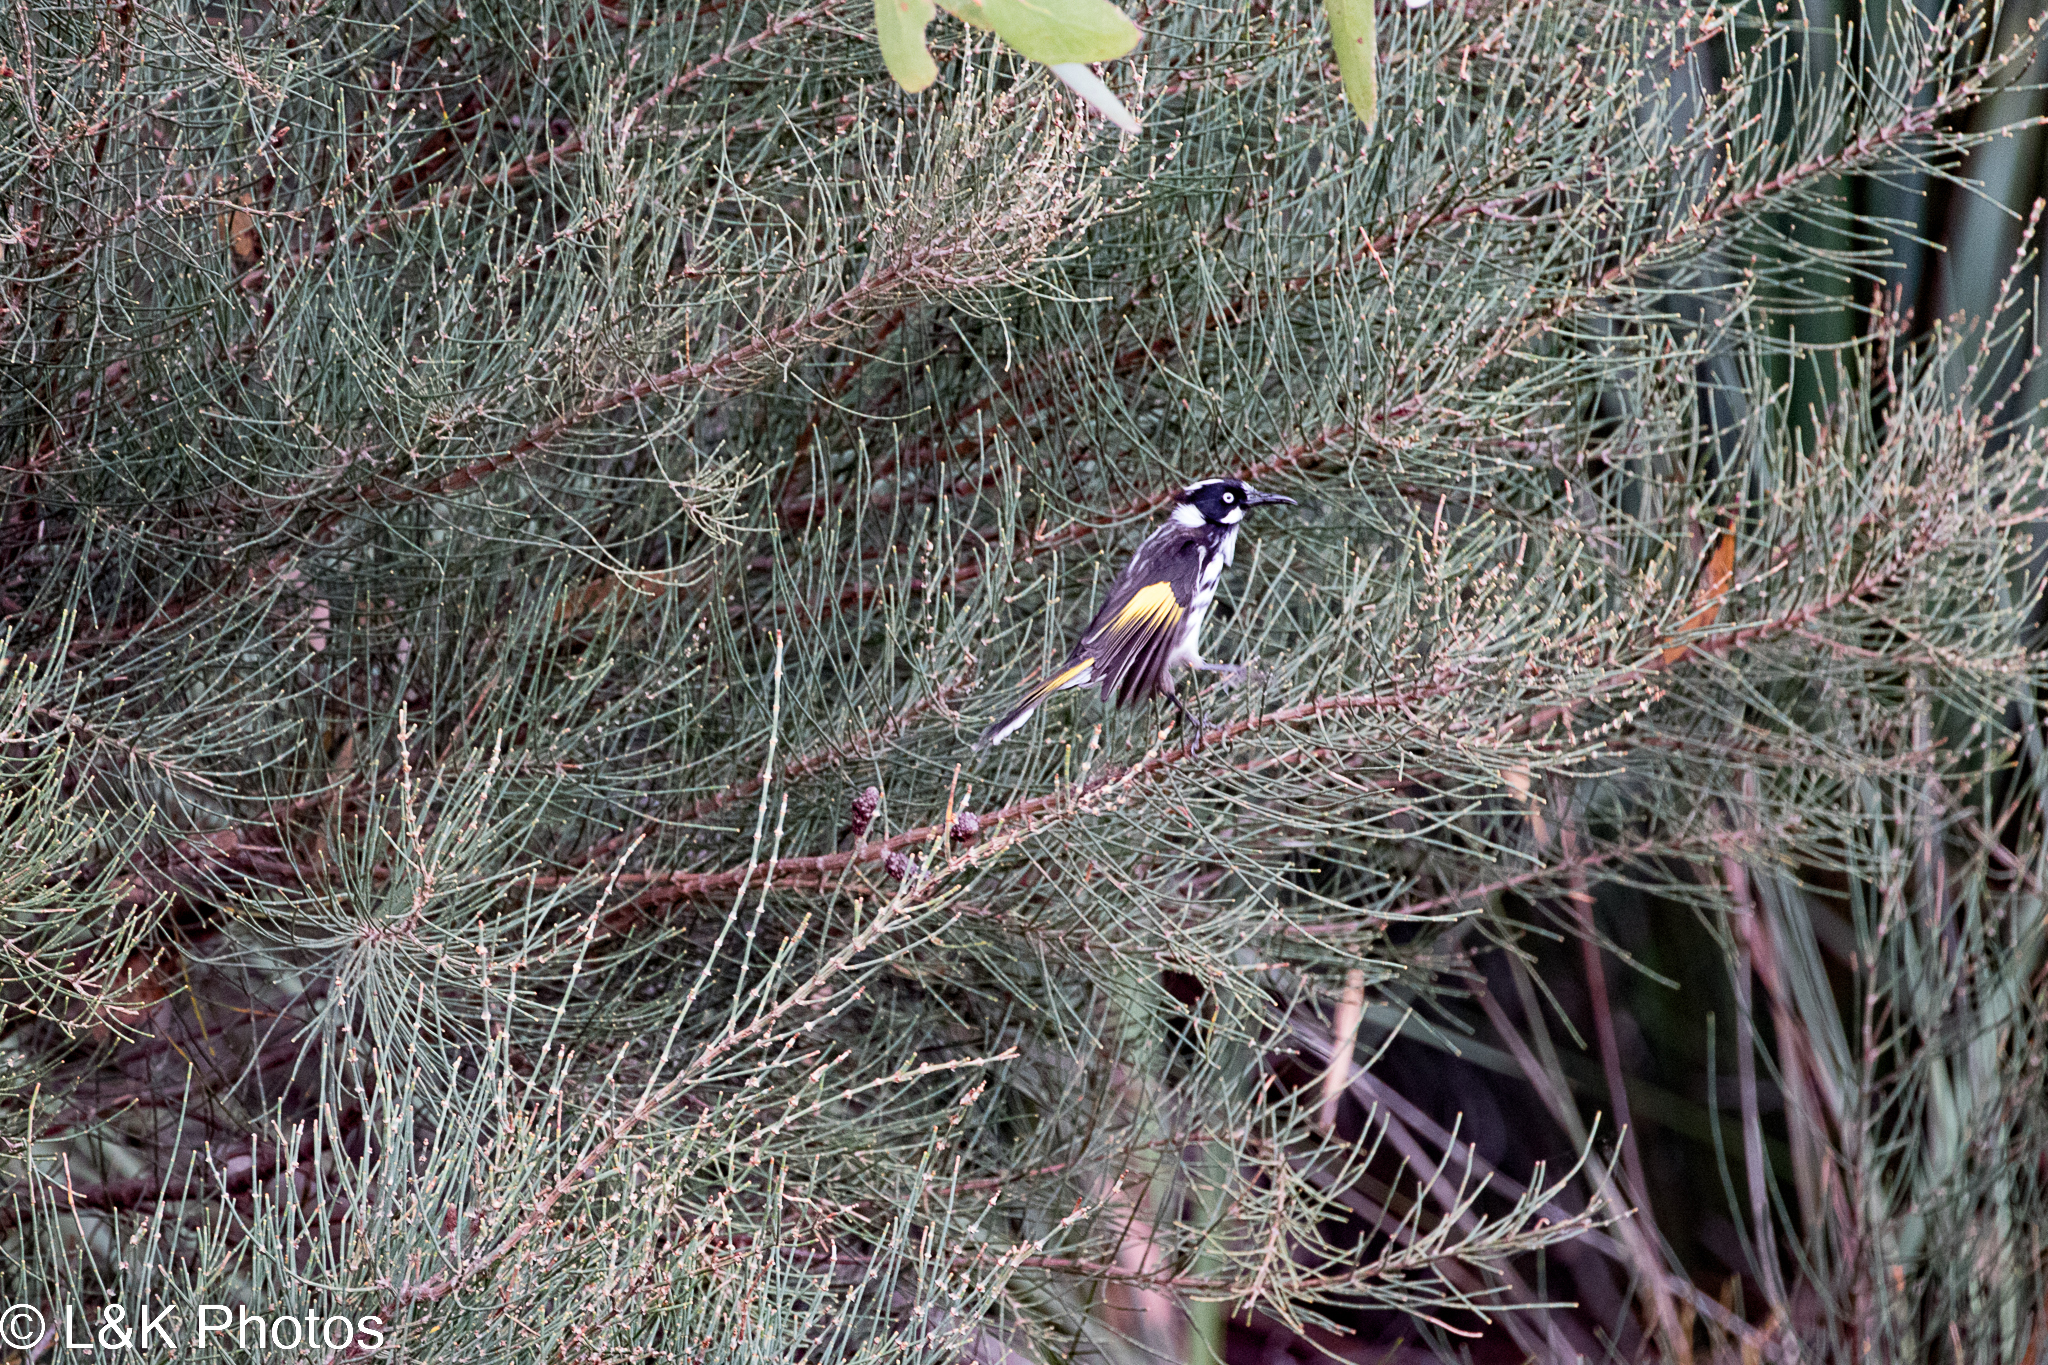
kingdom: Animalia
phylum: Chordata
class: Aves
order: Passeriformes
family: Meliphagidae
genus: Phylidonyris
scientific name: Phylidonyris novaehollandiae
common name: New holland honeyeater
